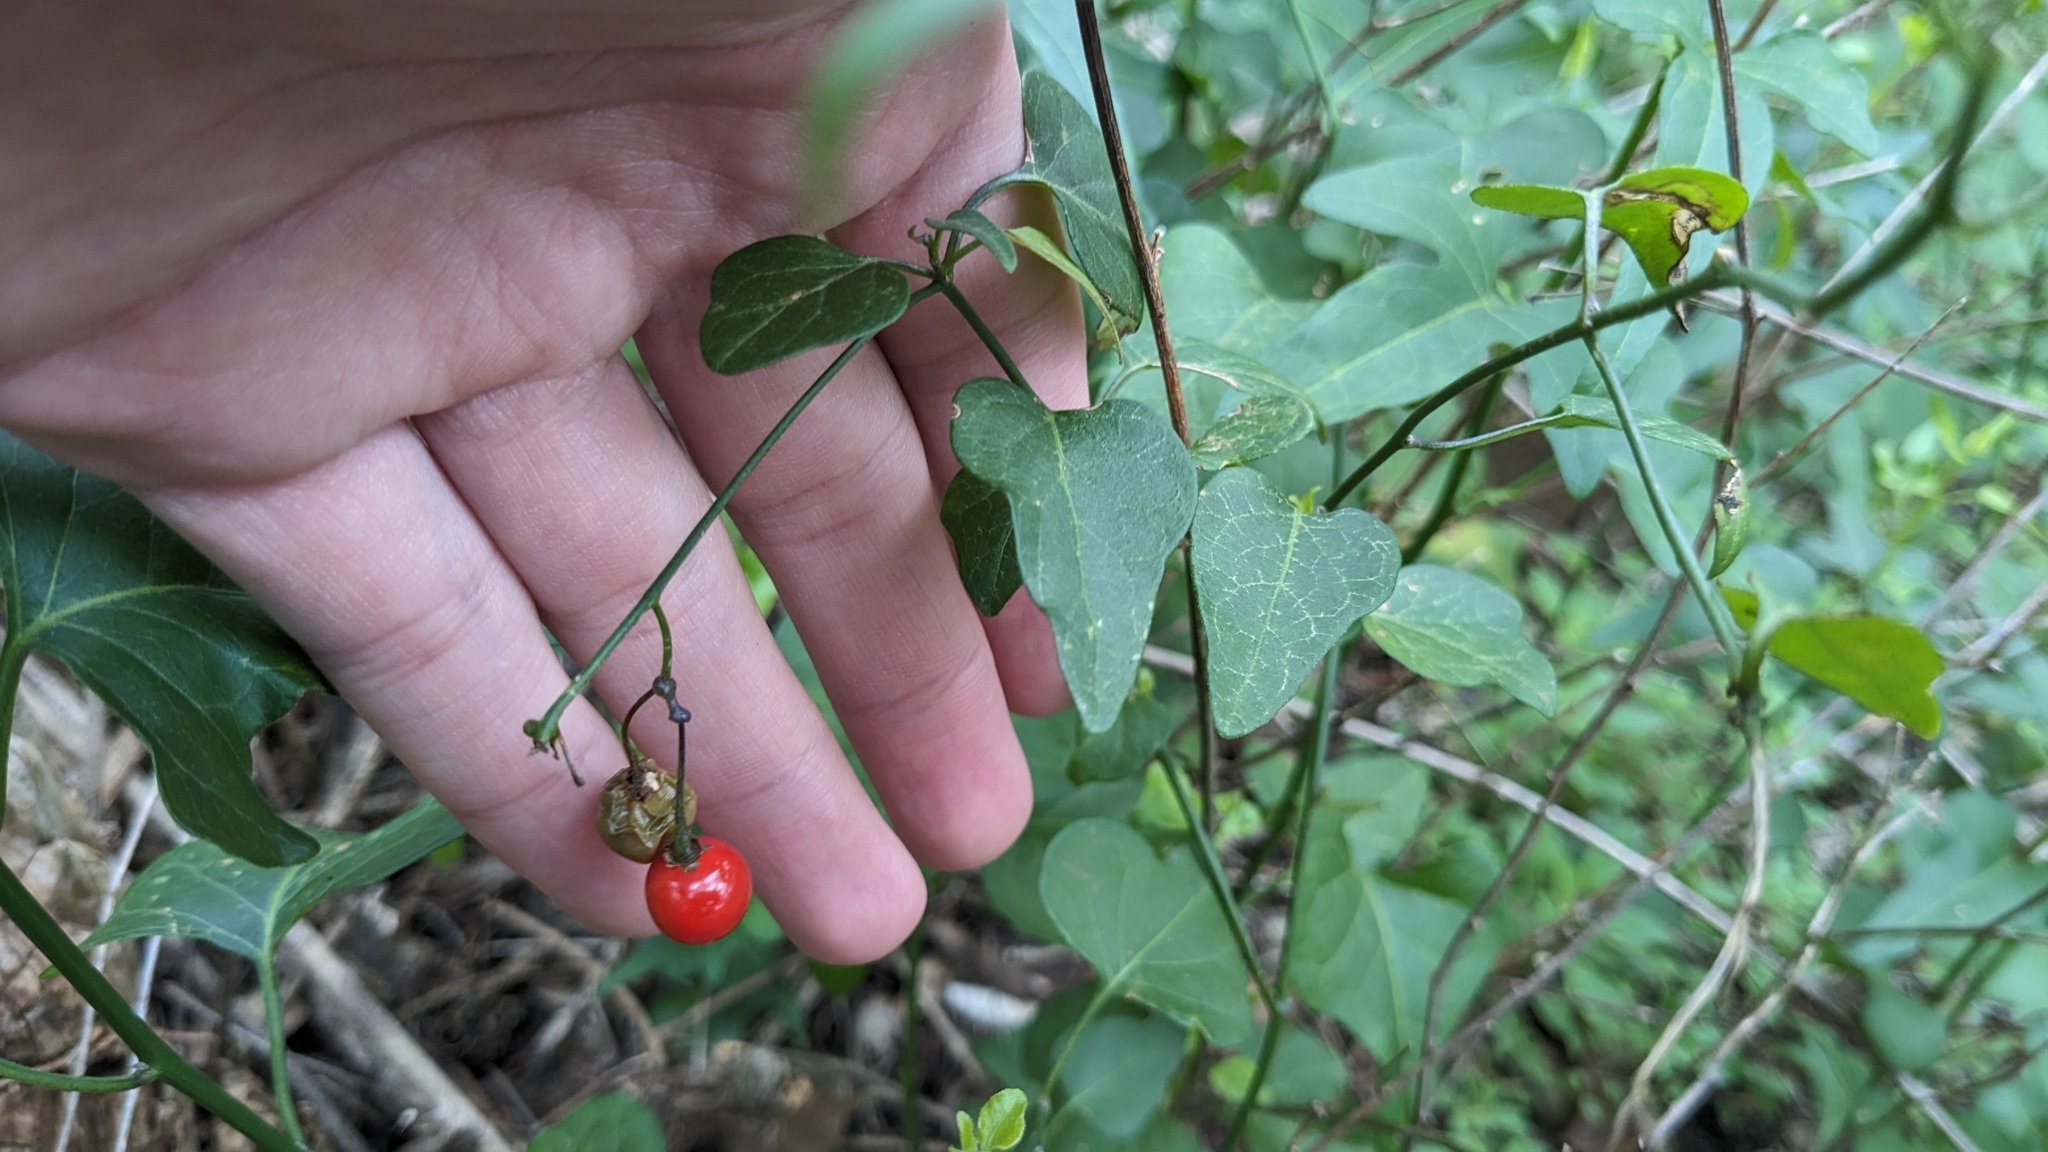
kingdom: Plantae
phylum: Tracheophyta
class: Magnoliopsida
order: Solanales
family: Solanaceae
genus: Solanum
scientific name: Solanum triquetrum
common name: Texas nightshade
